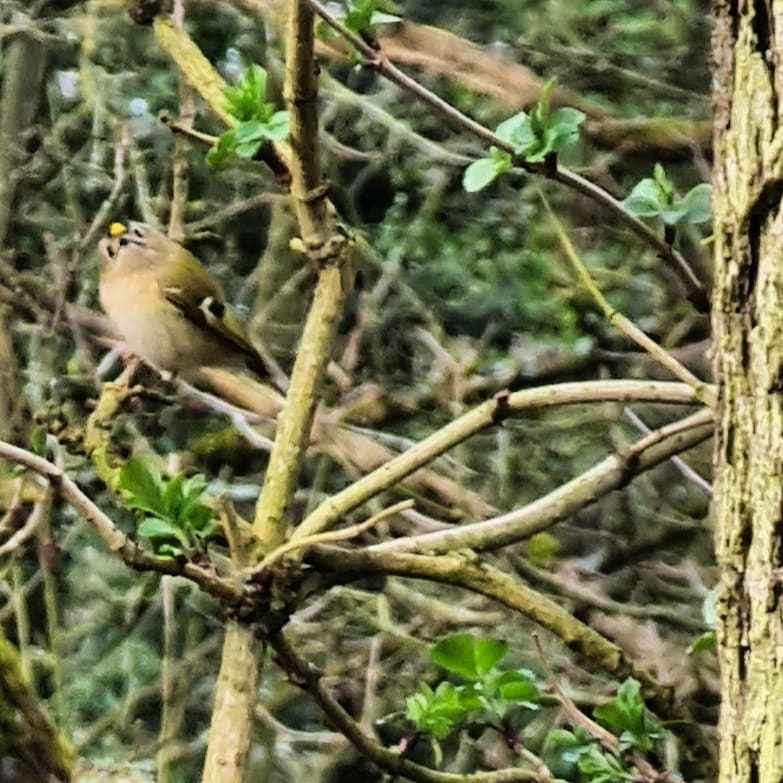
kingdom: Animalia
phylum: Chordata
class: Aves
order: Passeriformes
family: Regulidae
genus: Regulus
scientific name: Regulus regulus
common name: Goldcrest
